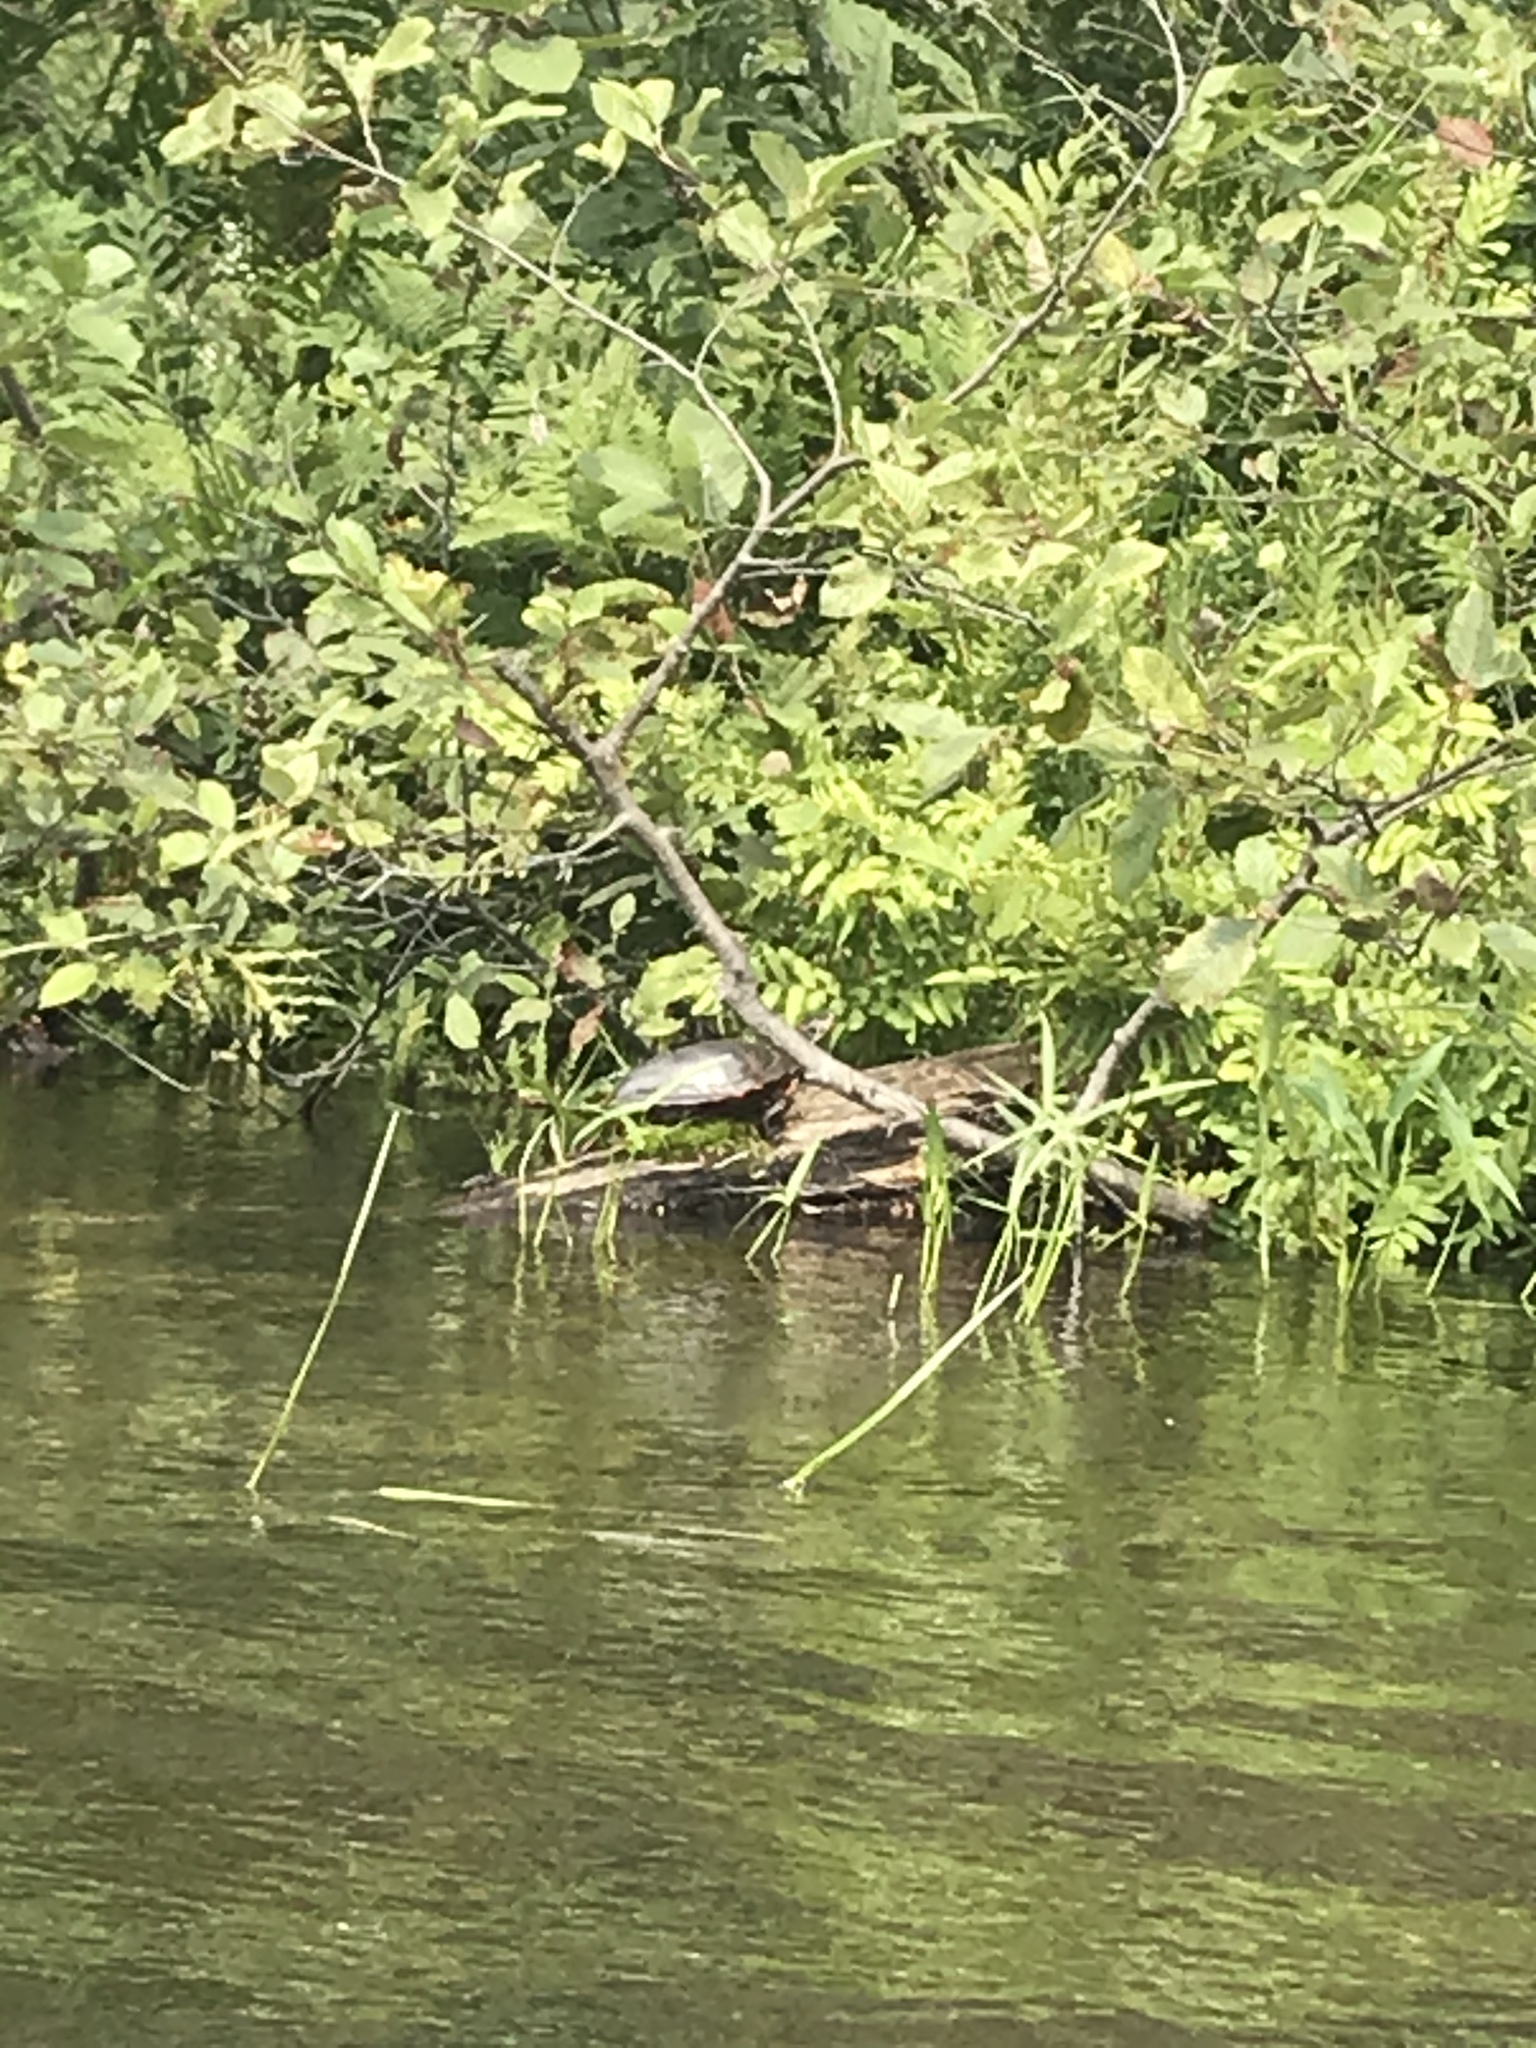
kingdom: Animalia
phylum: Chordata
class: Testudines
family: Emydidae
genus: Chrysemys
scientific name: Chrysemys picta
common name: Painted turtle
